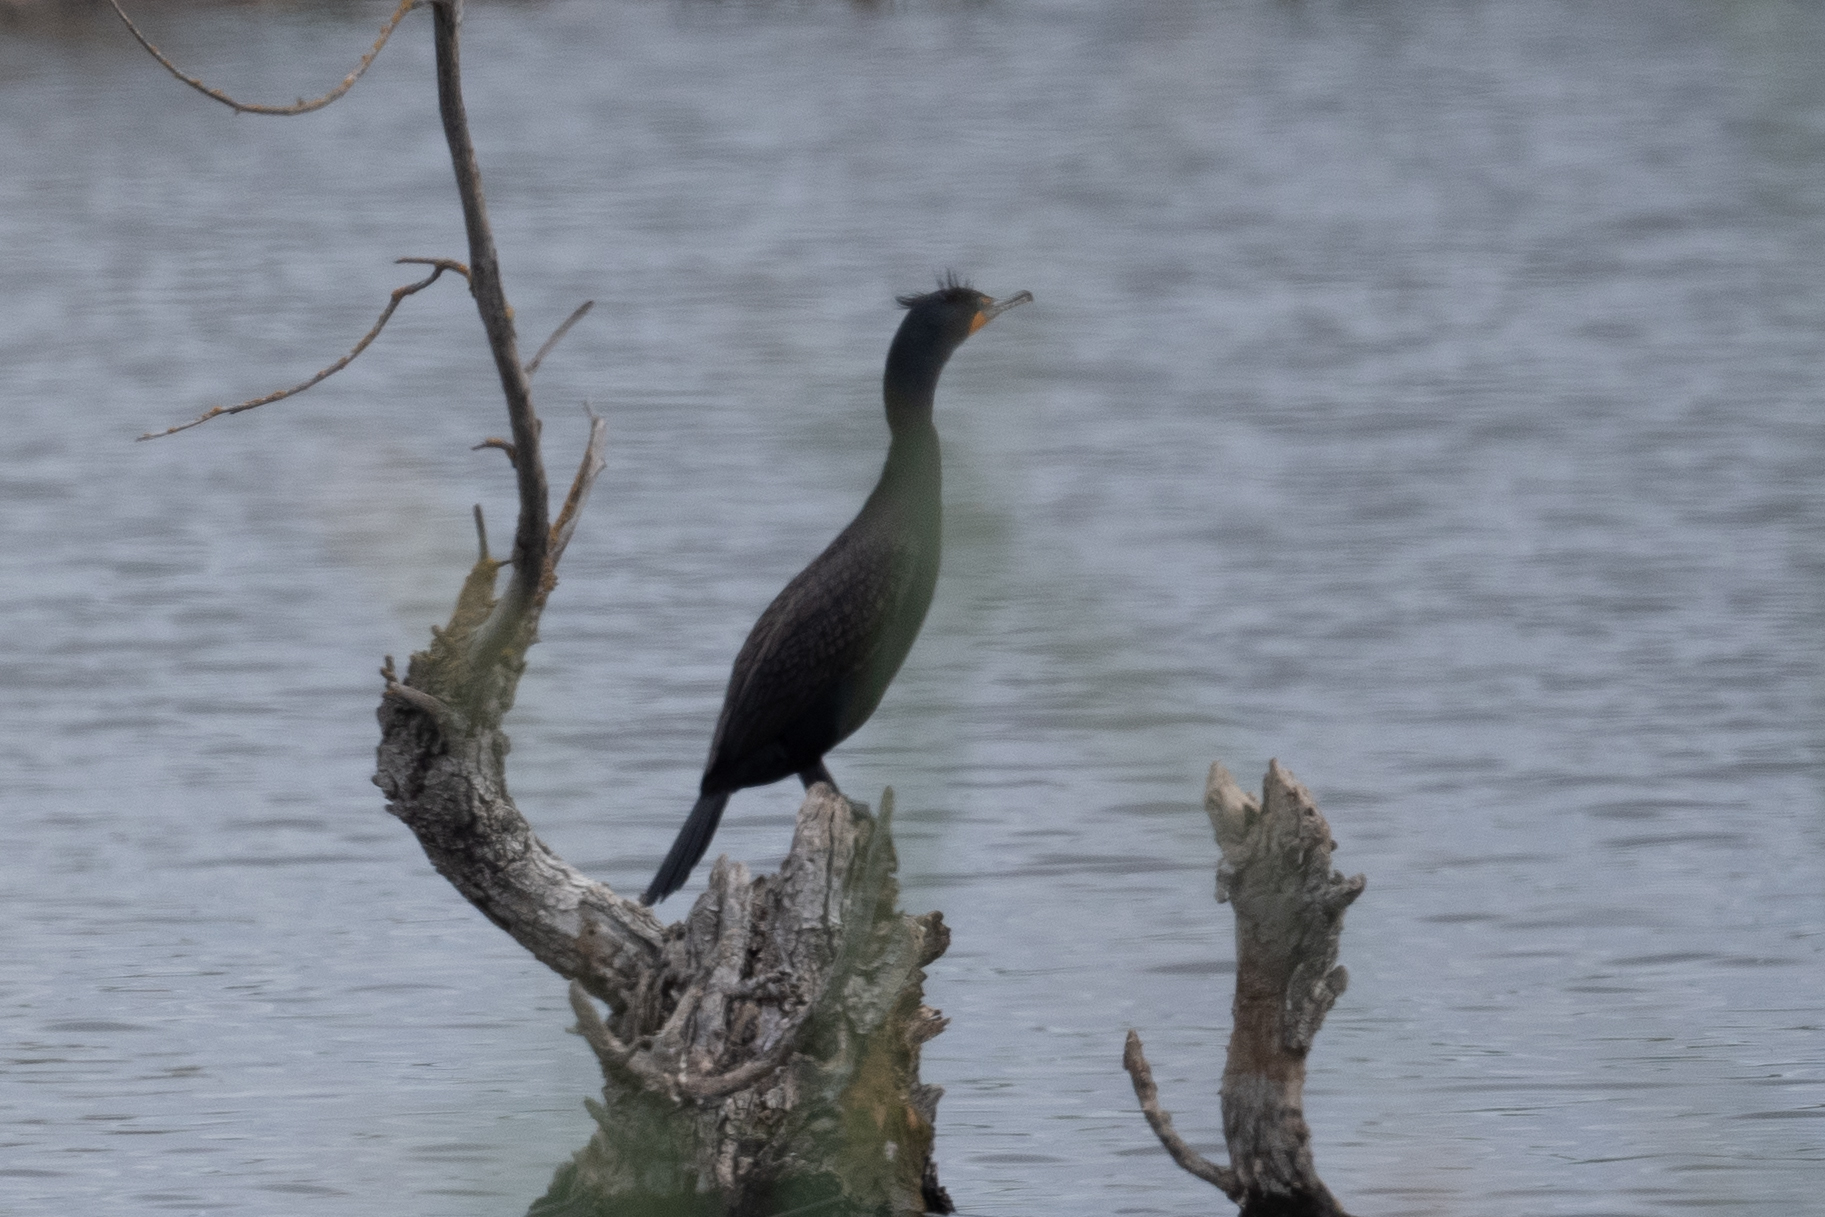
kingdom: Animalia
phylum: Chordata
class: Aves
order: Suliformes
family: Phalacrocoracidae
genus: Phalacrocorax
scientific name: Phalacrocorax auritus
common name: Double-crested cormorant
